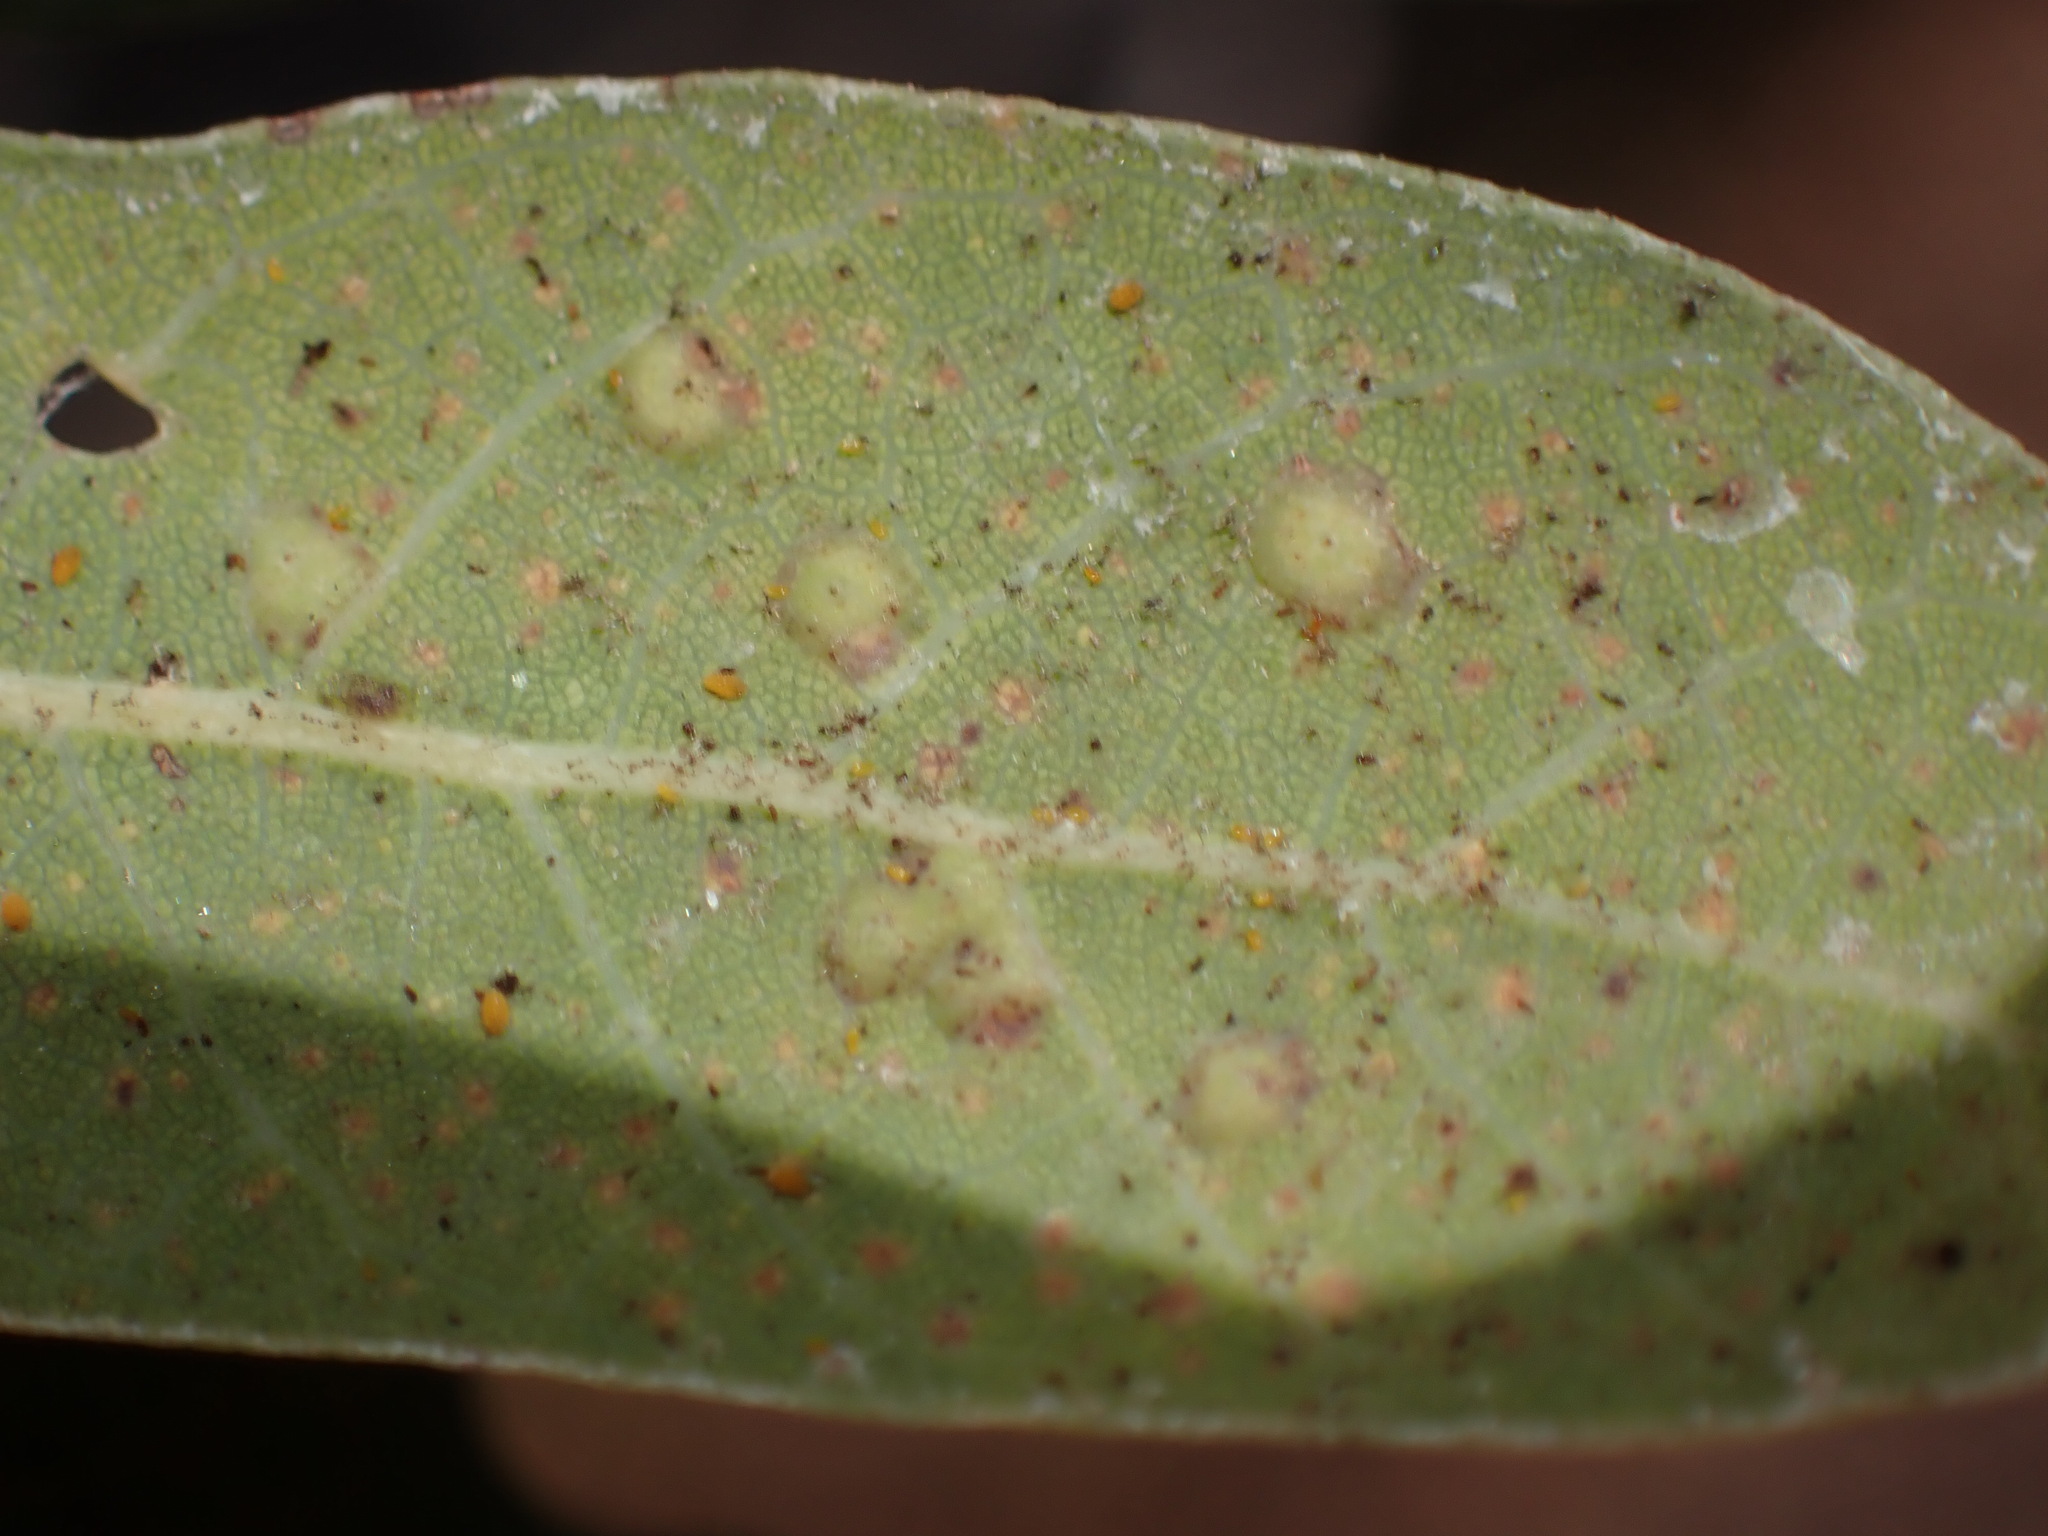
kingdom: Animalia
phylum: Arthropoda
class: Insecta
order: Hymenoptera
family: Cynipidae
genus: Neuroterus
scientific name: Neuroterus
